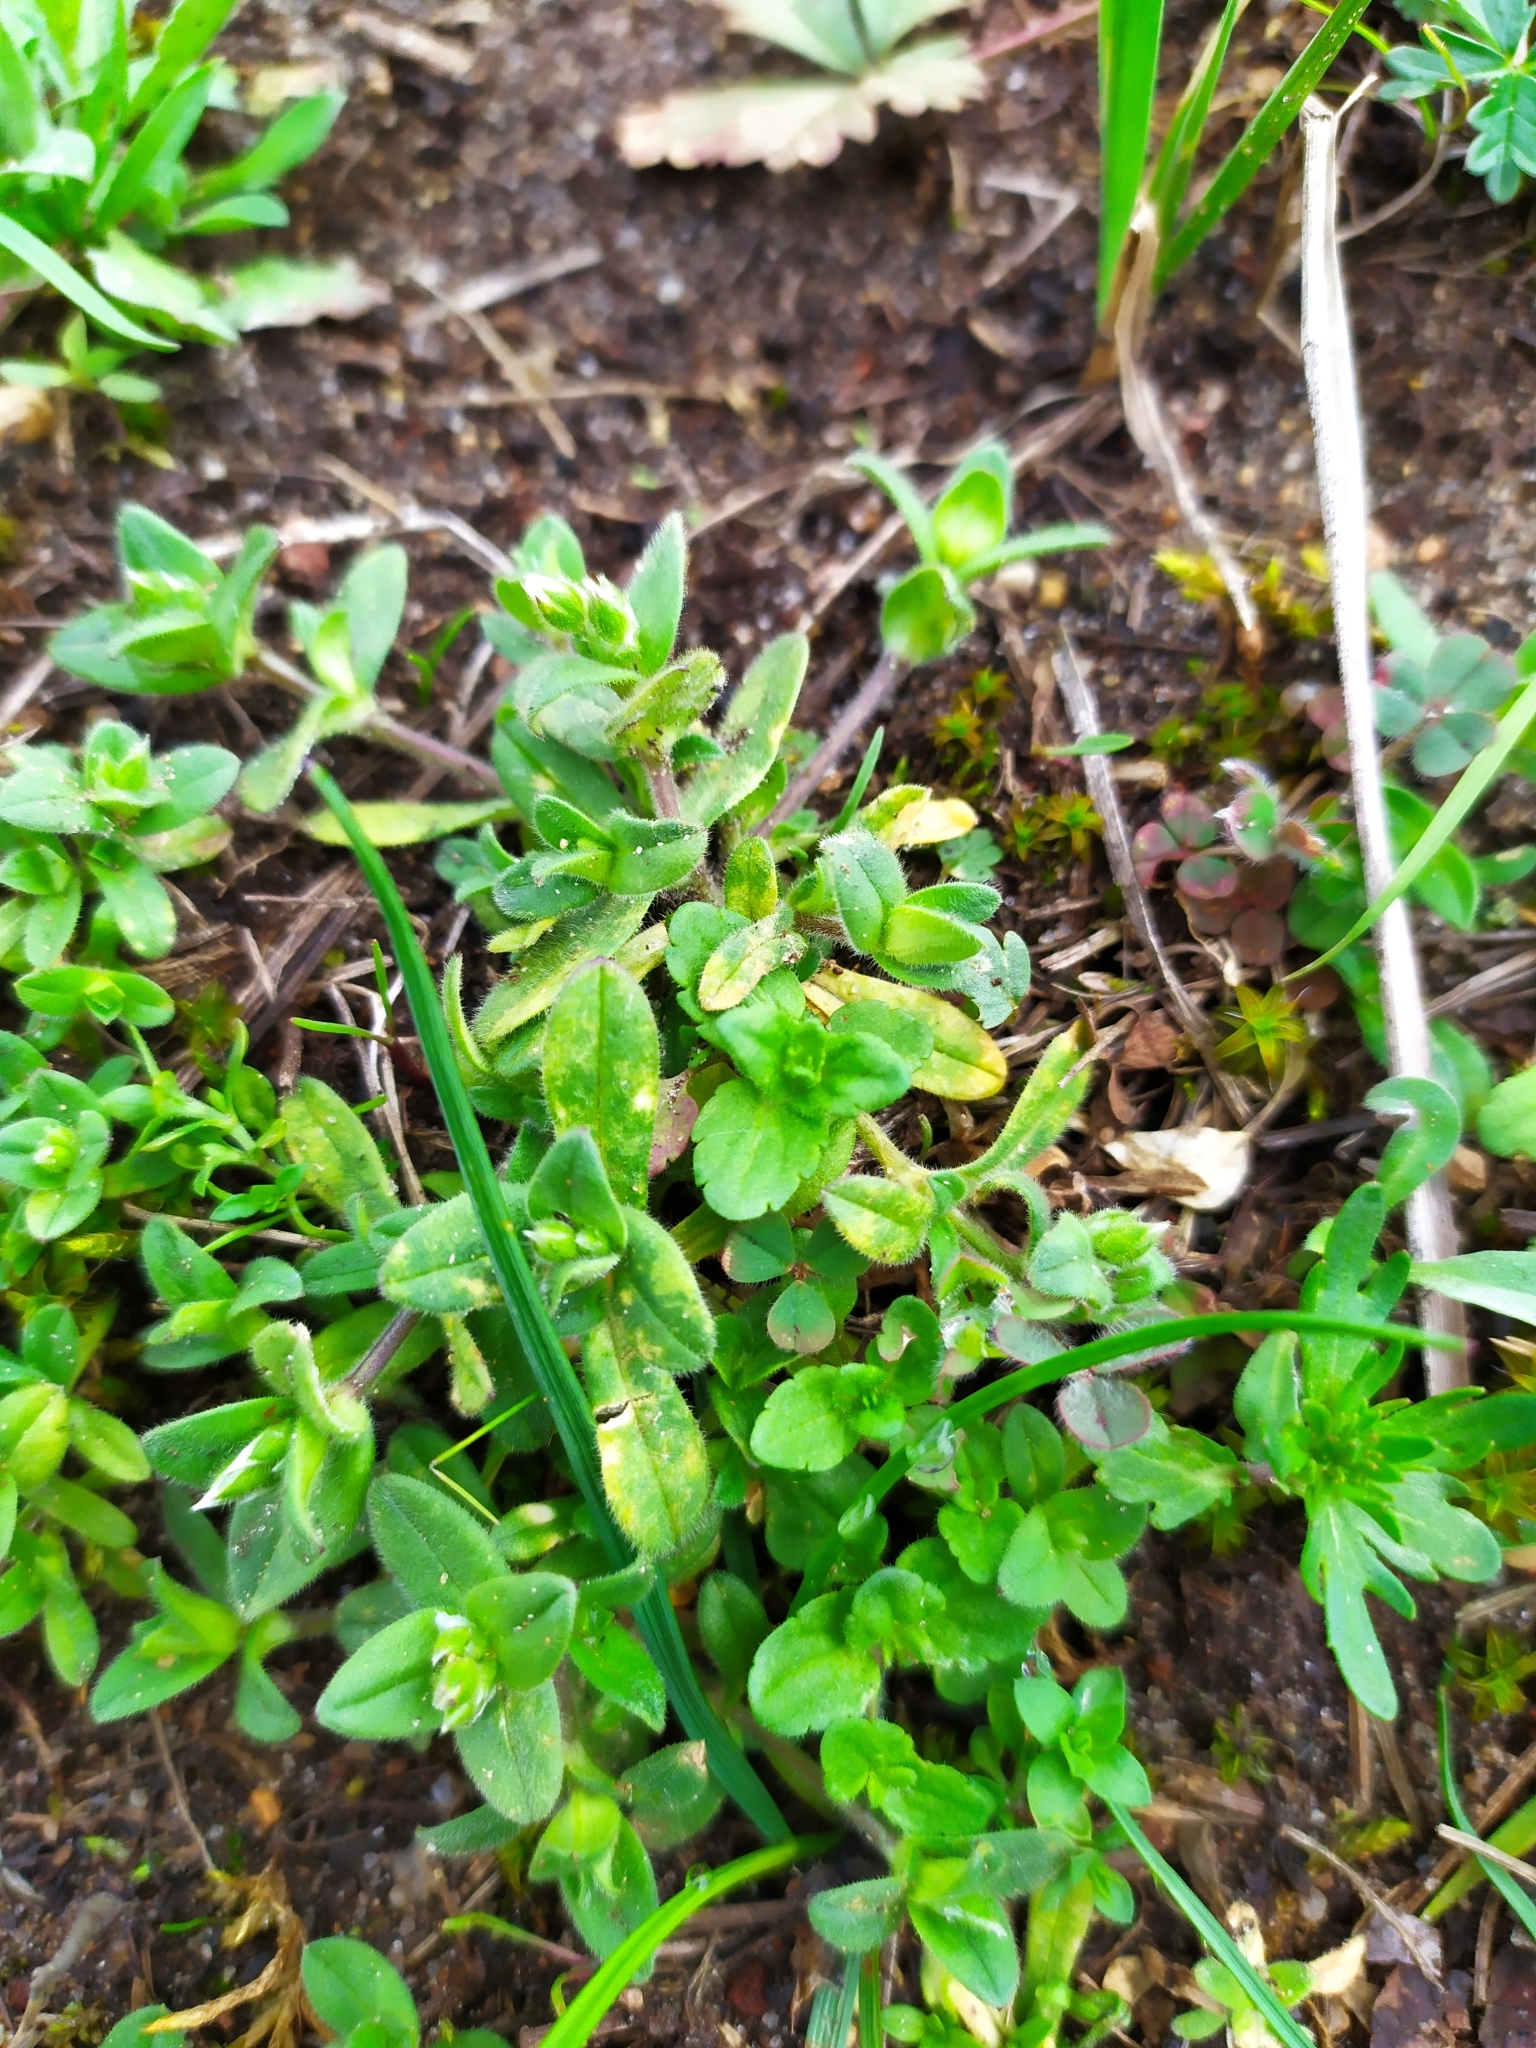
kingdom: Plantae
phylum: Tracheophyta
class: Magnoliopsida
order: Lamiales
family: Plantaginaceae
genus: Veronica
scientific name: Veronica arvensis
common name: Corn speedwell
